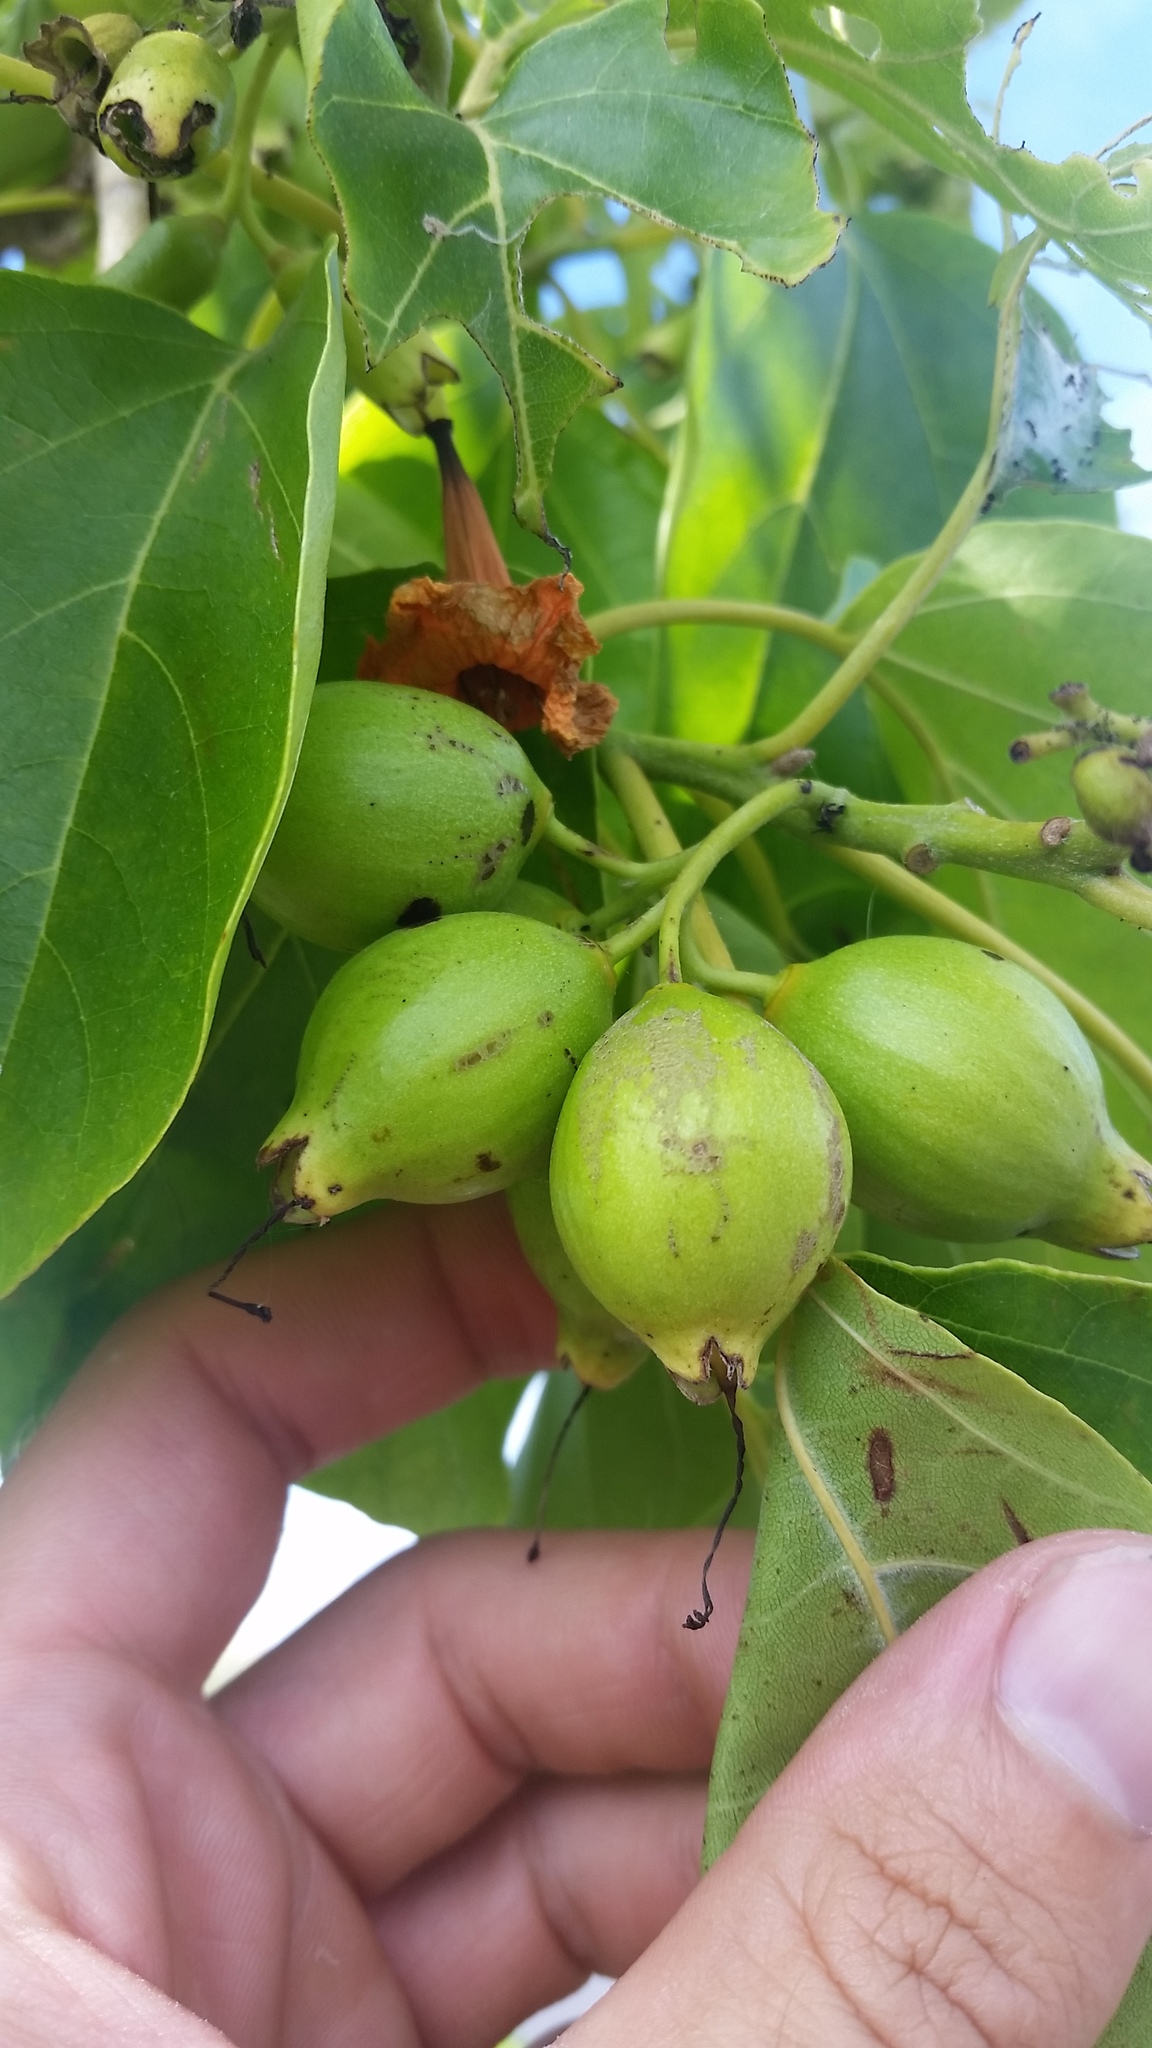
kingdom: Plantae
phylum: Tracheophyta
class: Magnoliopsida
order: Boraginales
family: Cordiaceae
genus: Cordia
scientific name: Cordia subcordata
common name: Mareer
